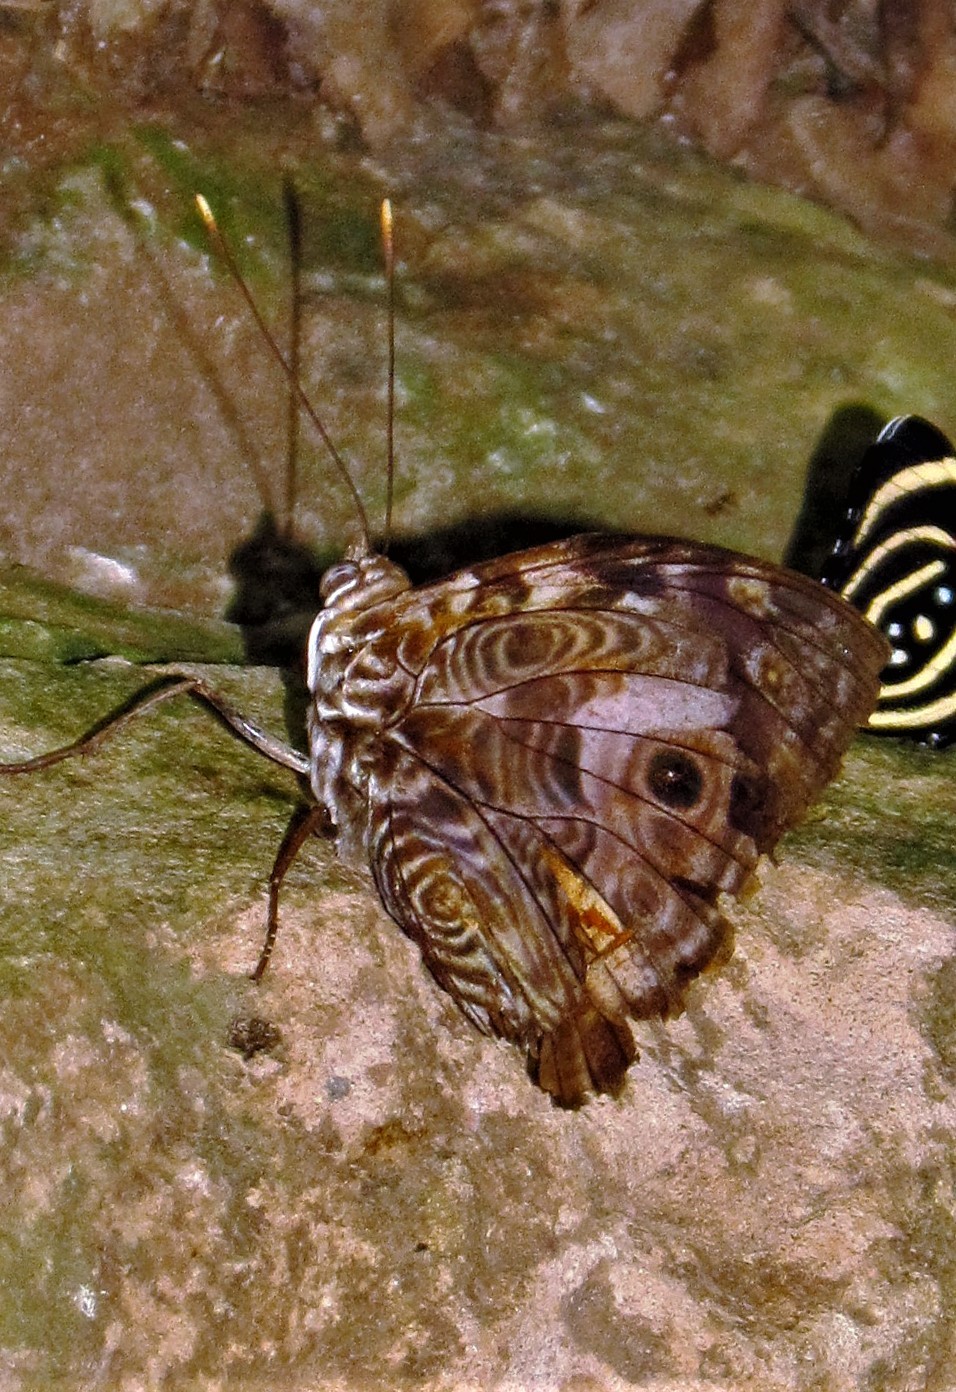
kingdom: Animalia
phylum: Arthropoda
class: Insecta
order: Lepidoptera
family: Nymphalidae
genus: Smyrna
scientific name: Smyrna blomfildia
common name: Blomfild's beauty
